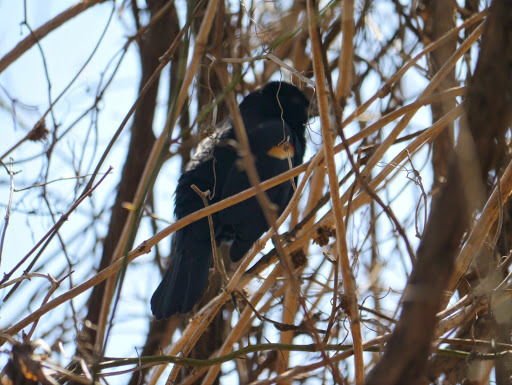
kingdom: Animalia
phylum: Chordata
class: Aves
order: Passeriformes
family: Icteridae
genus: Agelaius
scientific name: Agelaius phoeniceus
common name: Red-winged blackbird
